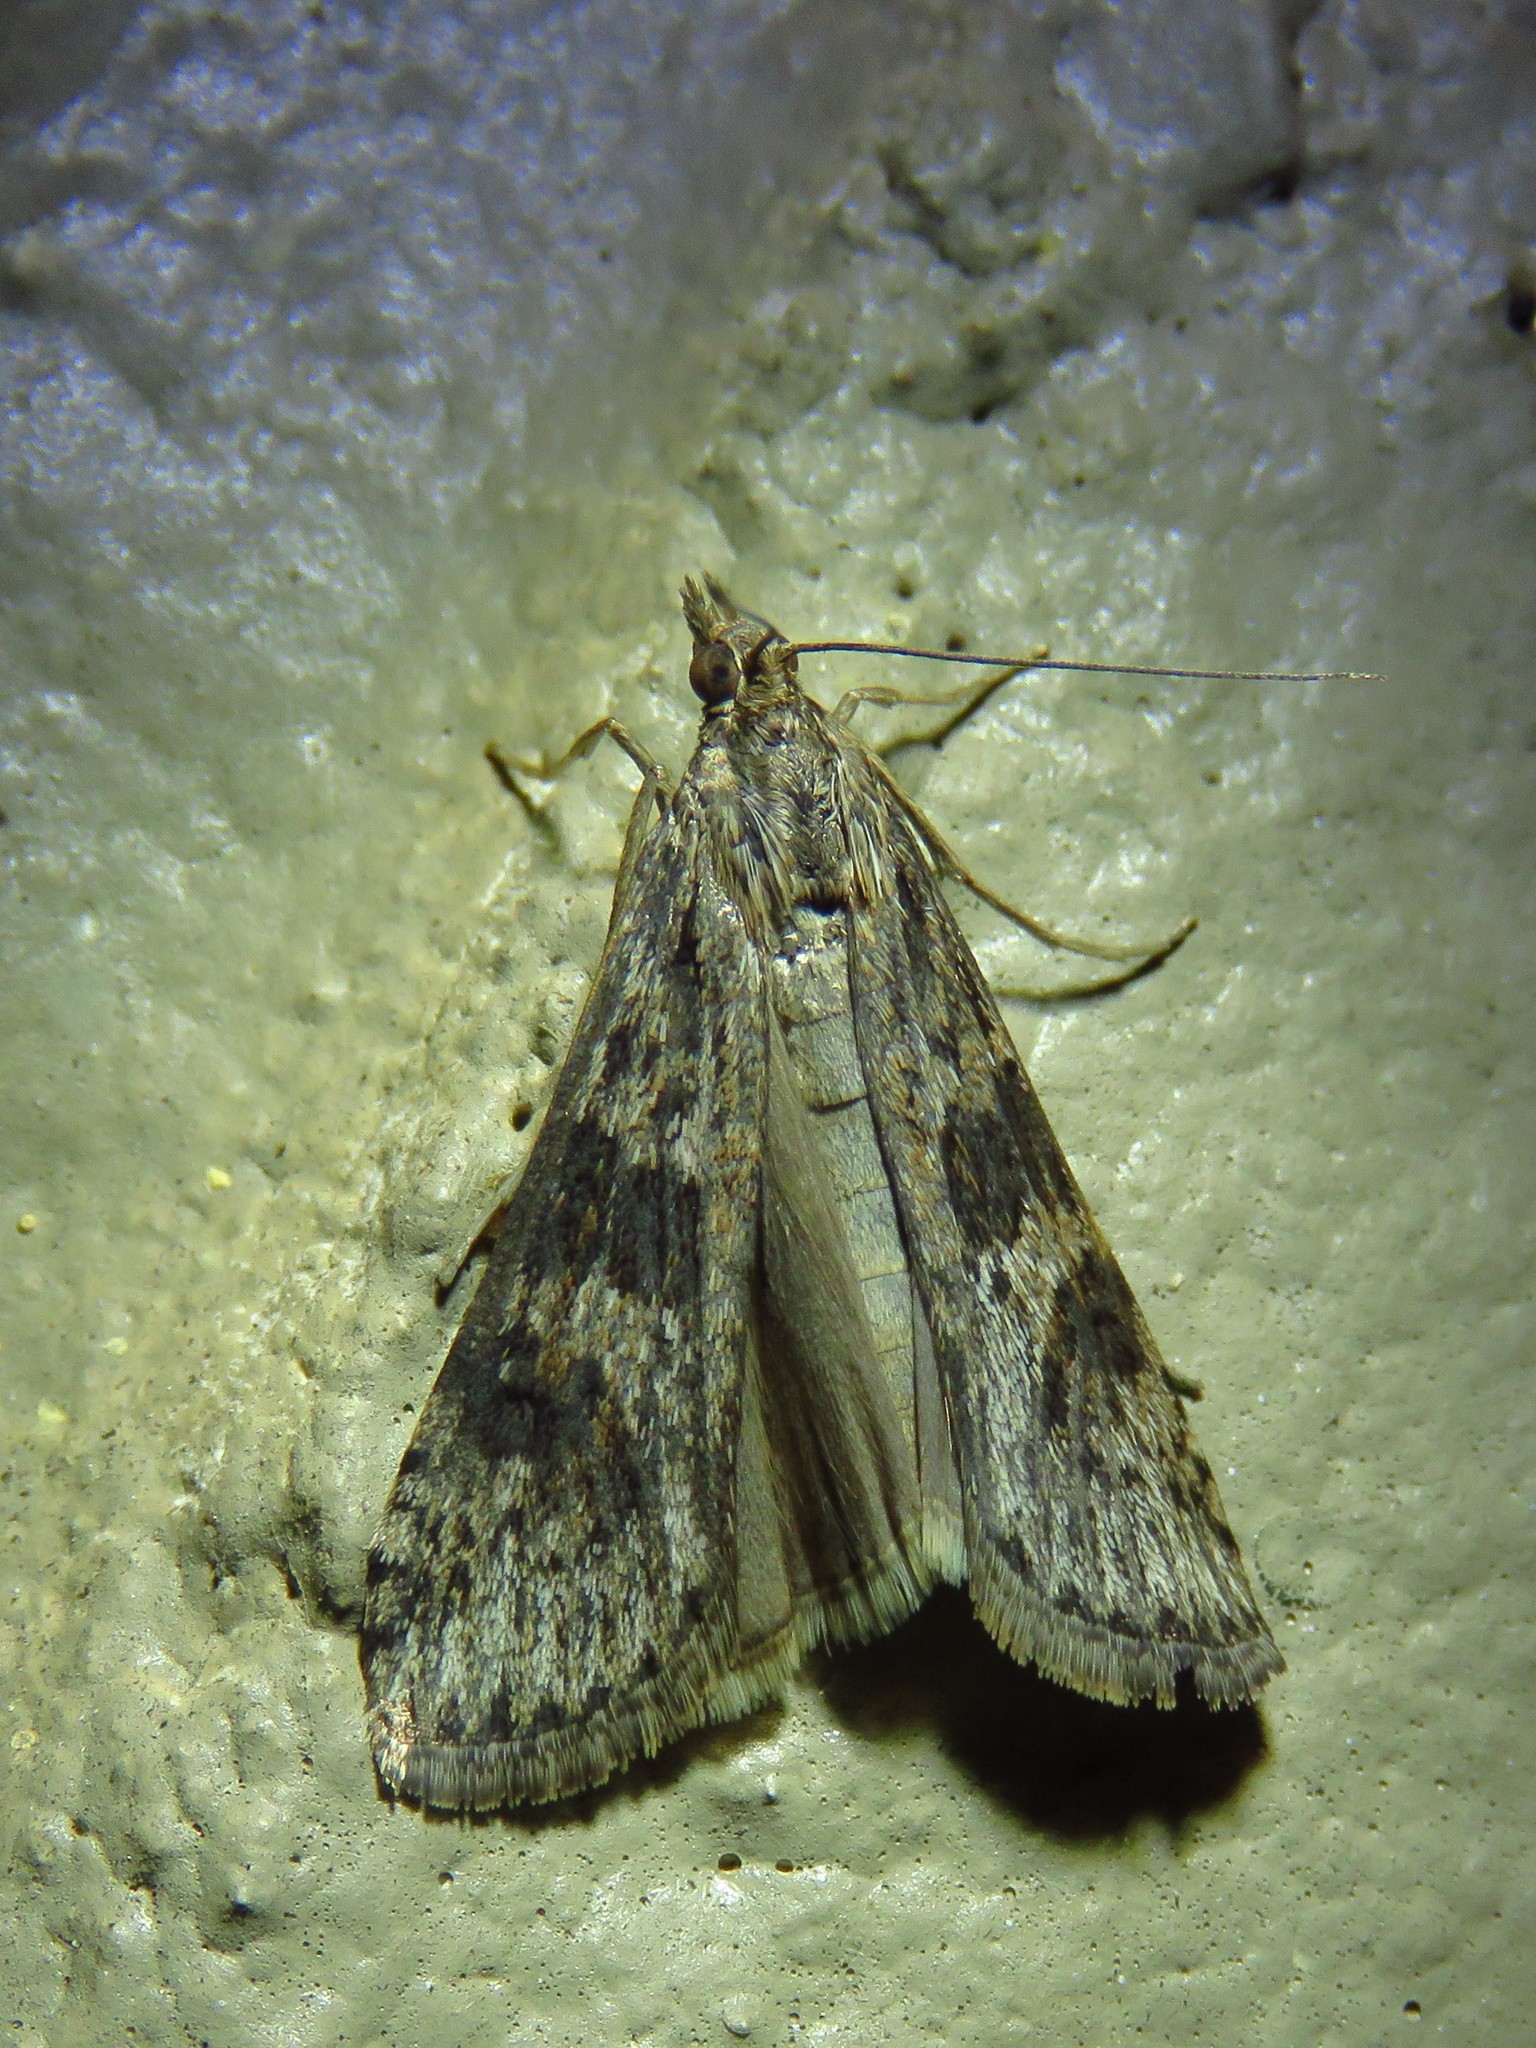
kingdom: Animalia
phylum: Arthropoda
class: Insecta
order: Lepidoptera
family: Crambidae
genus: Nomophila
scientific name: Nomophila nearctica
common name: American rush veneer
